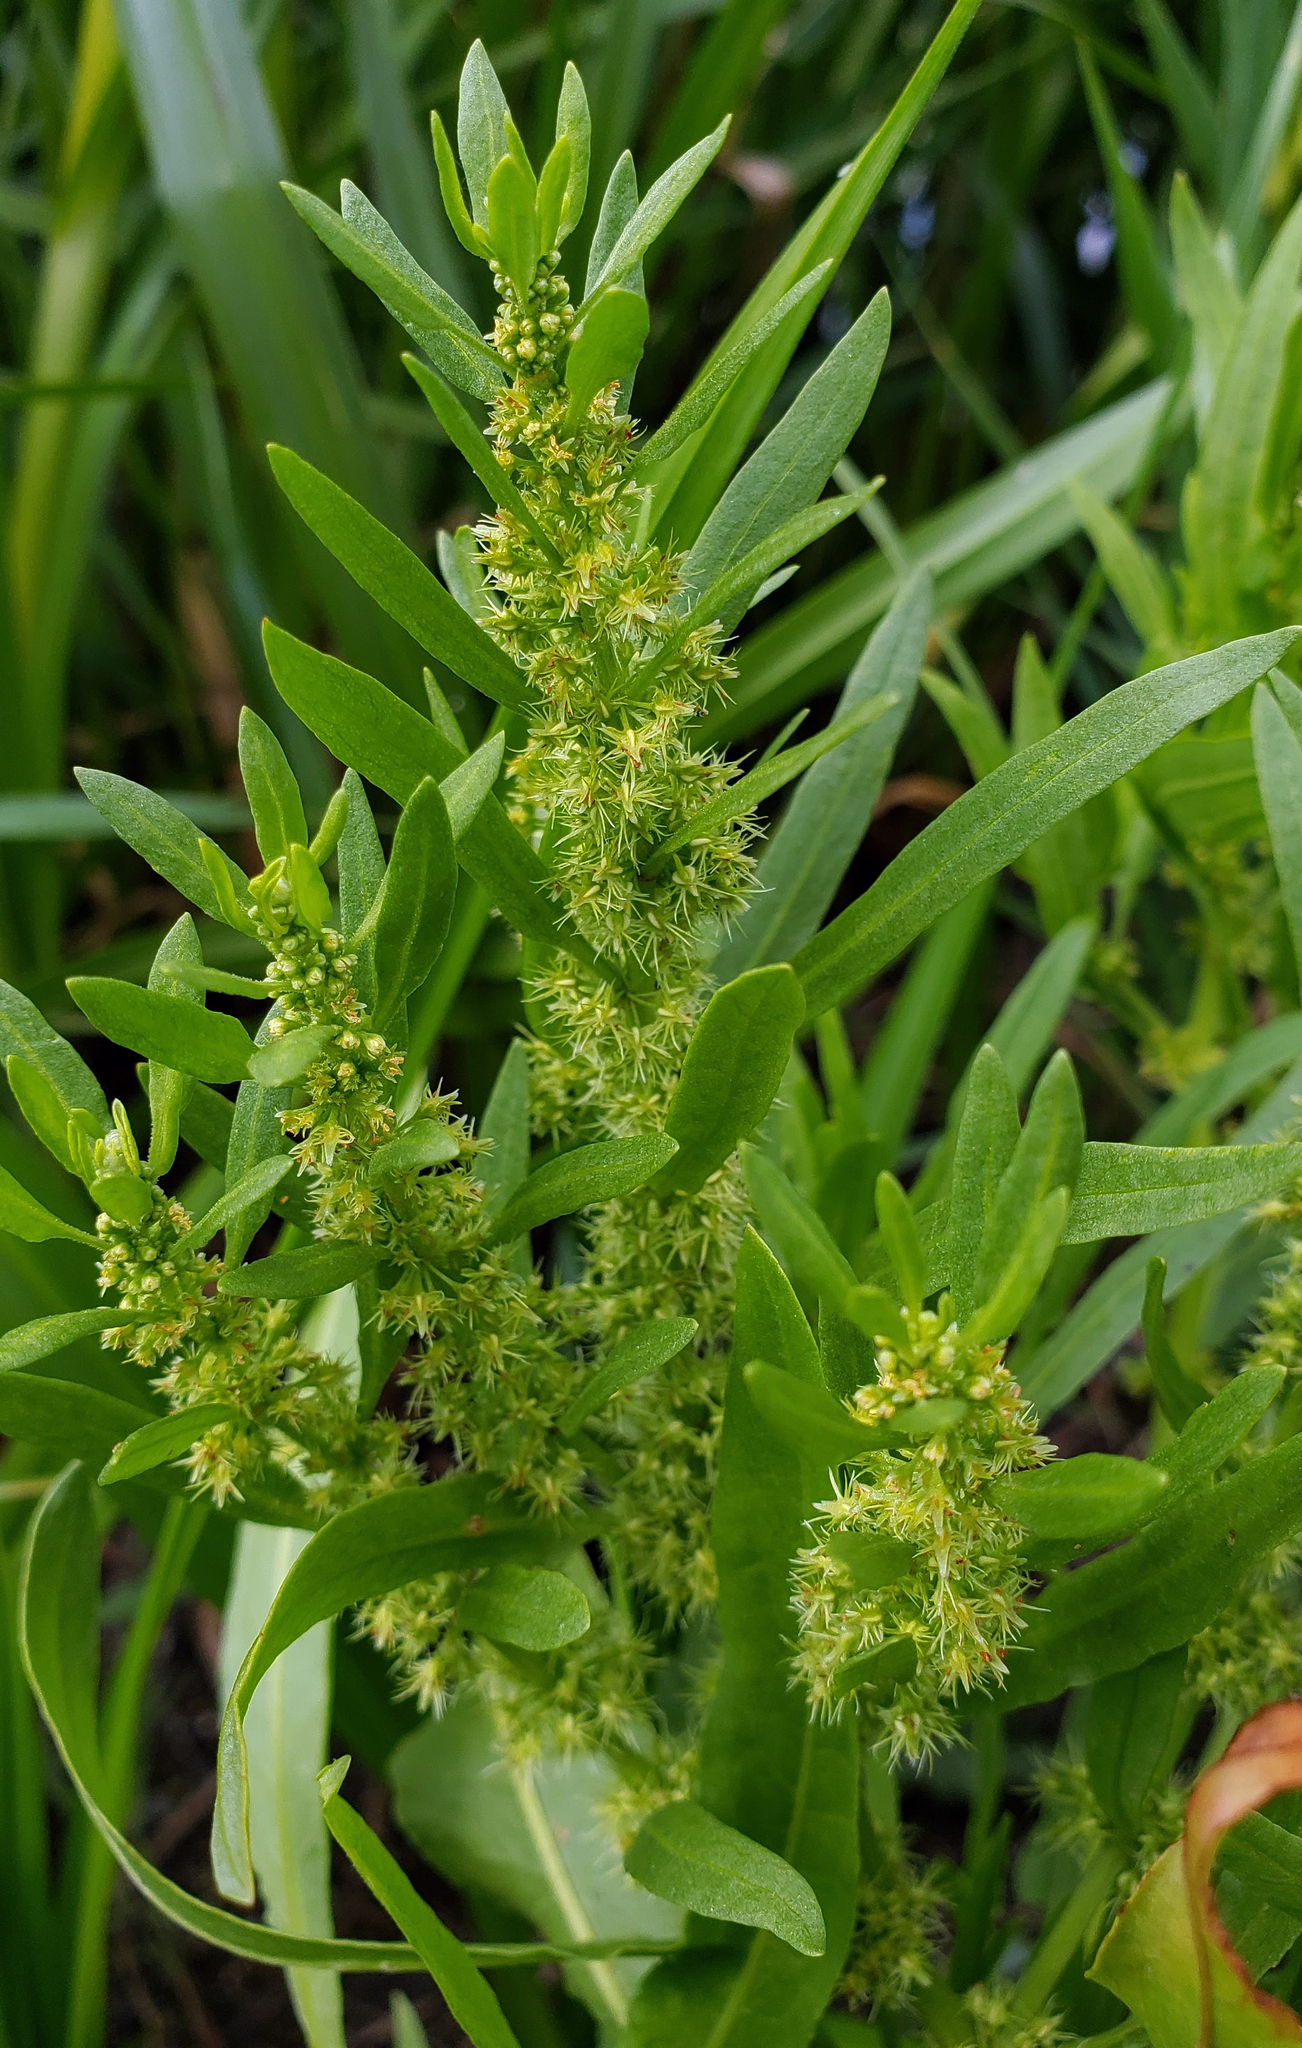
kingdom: Plantae
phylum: Tracheophyta
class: Magnoliopsida
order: Caryophyllales
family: Polygonaceae
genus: Rumex
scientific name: Rumex fueginus
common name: American golden dock
